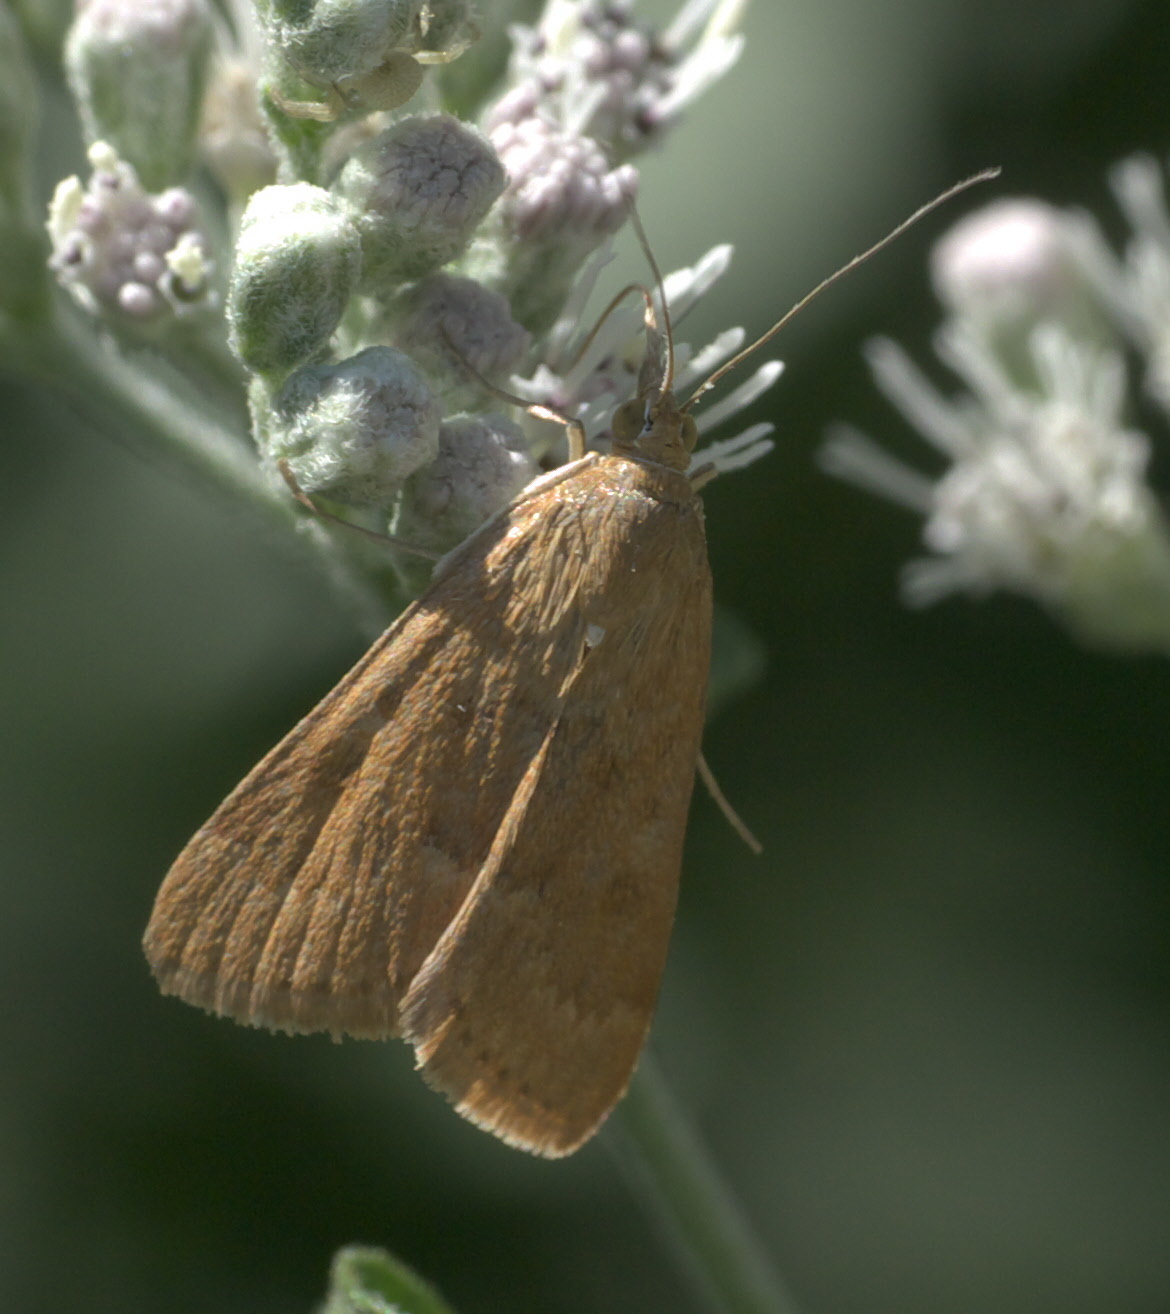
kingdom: Animalia
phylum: Arthropoda
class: Insecta
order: Lepidoptera
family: Crambidae
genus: Achyra
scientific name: Achyra rantalis
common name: Garden webworm
